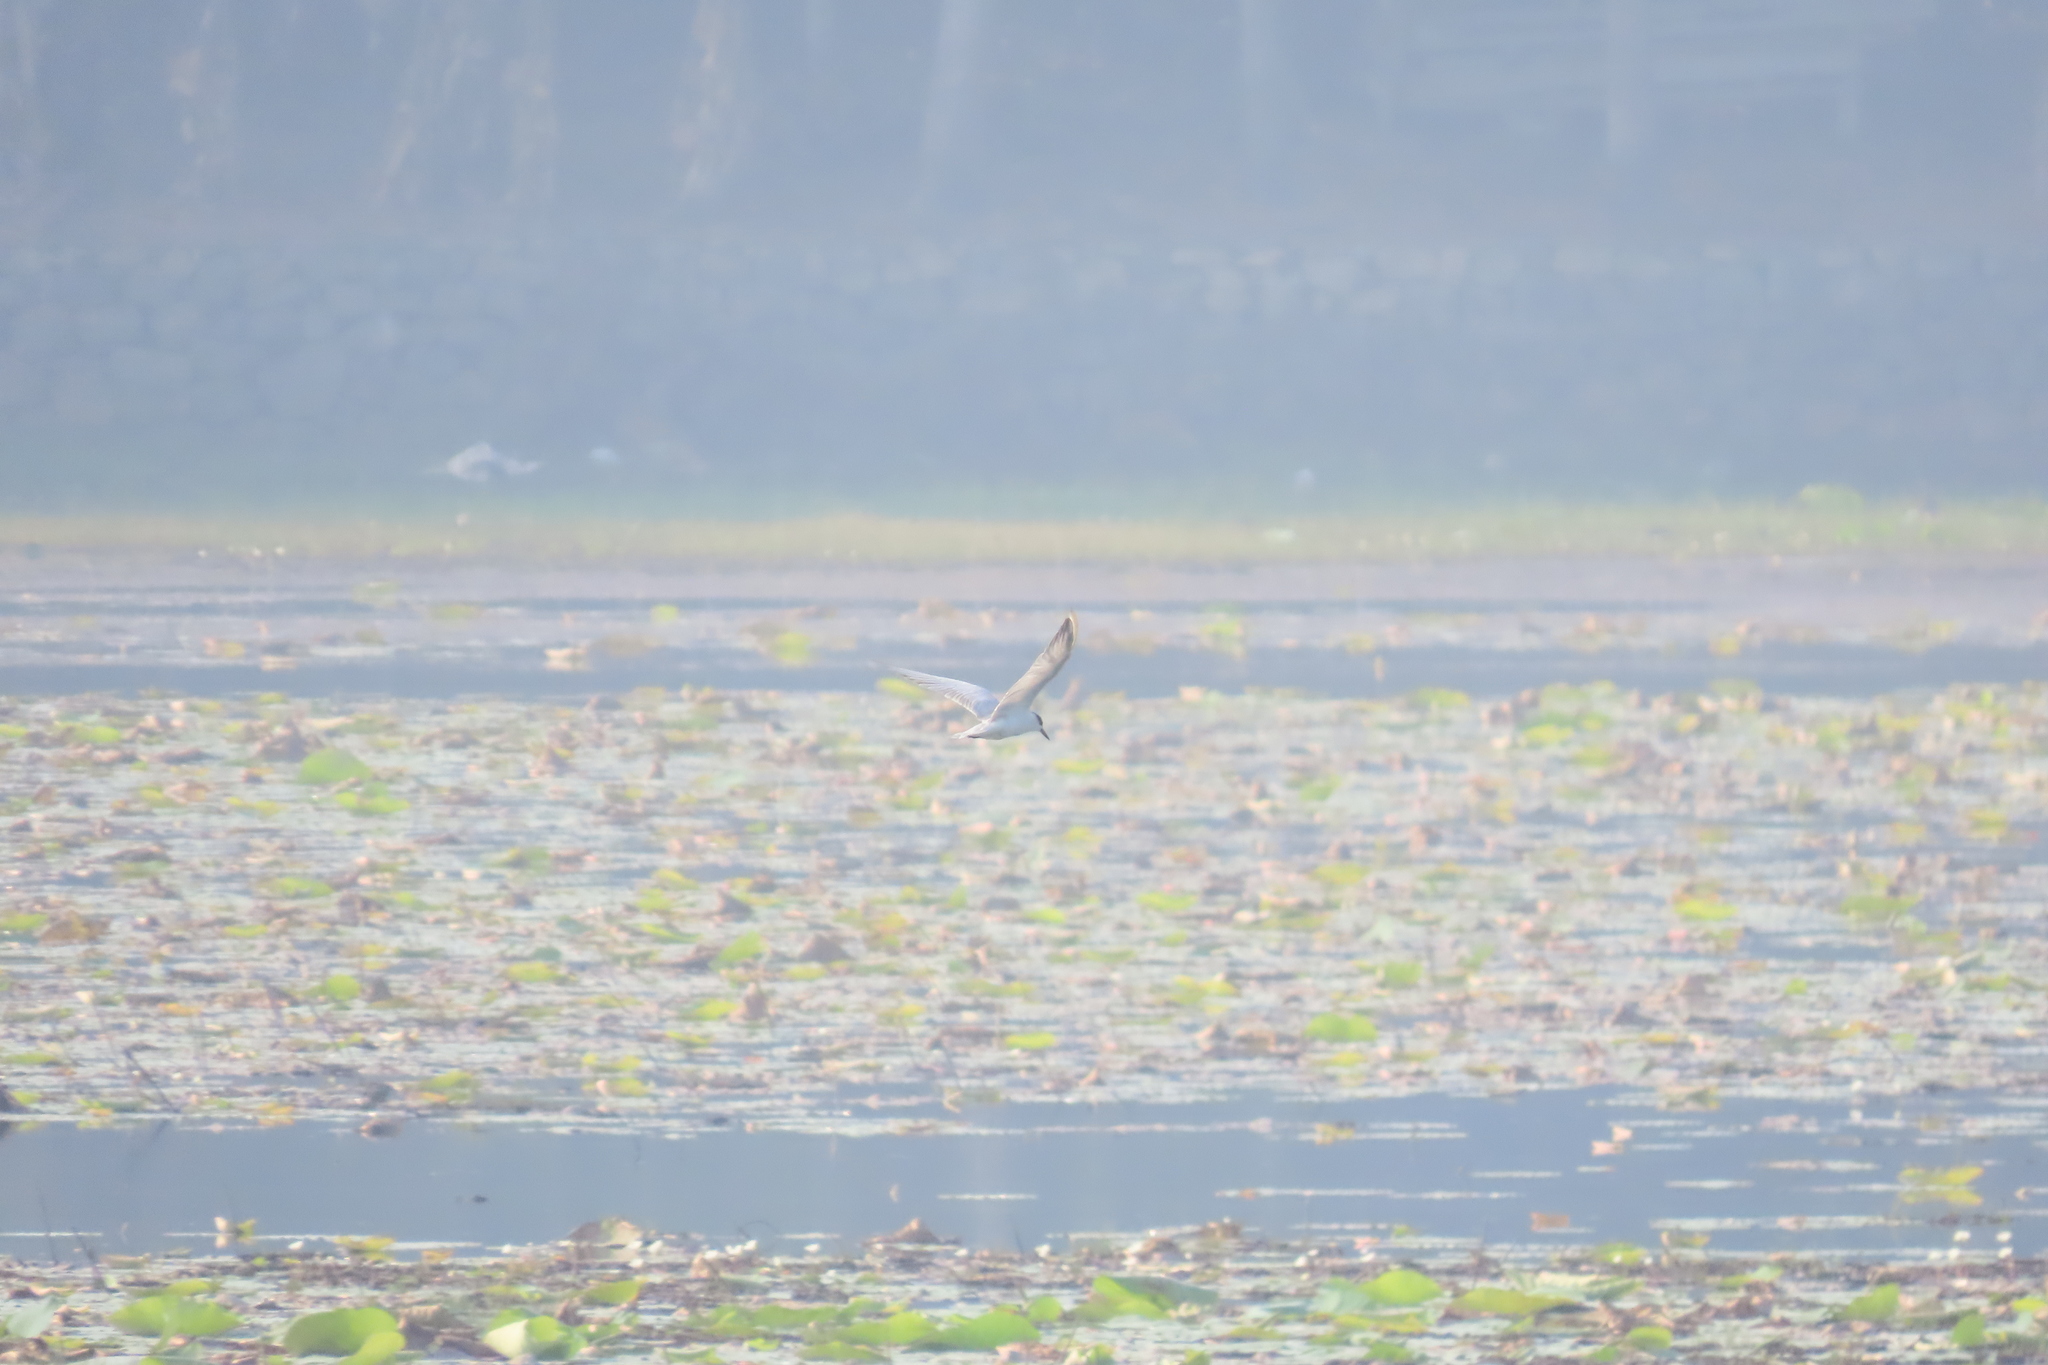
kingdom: Animalia
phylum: Chordata
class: Aves
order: Charadriiformes
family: Laridae
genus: Chlidonias
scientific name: Chlidonias hybrida
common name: Whiskered tern
